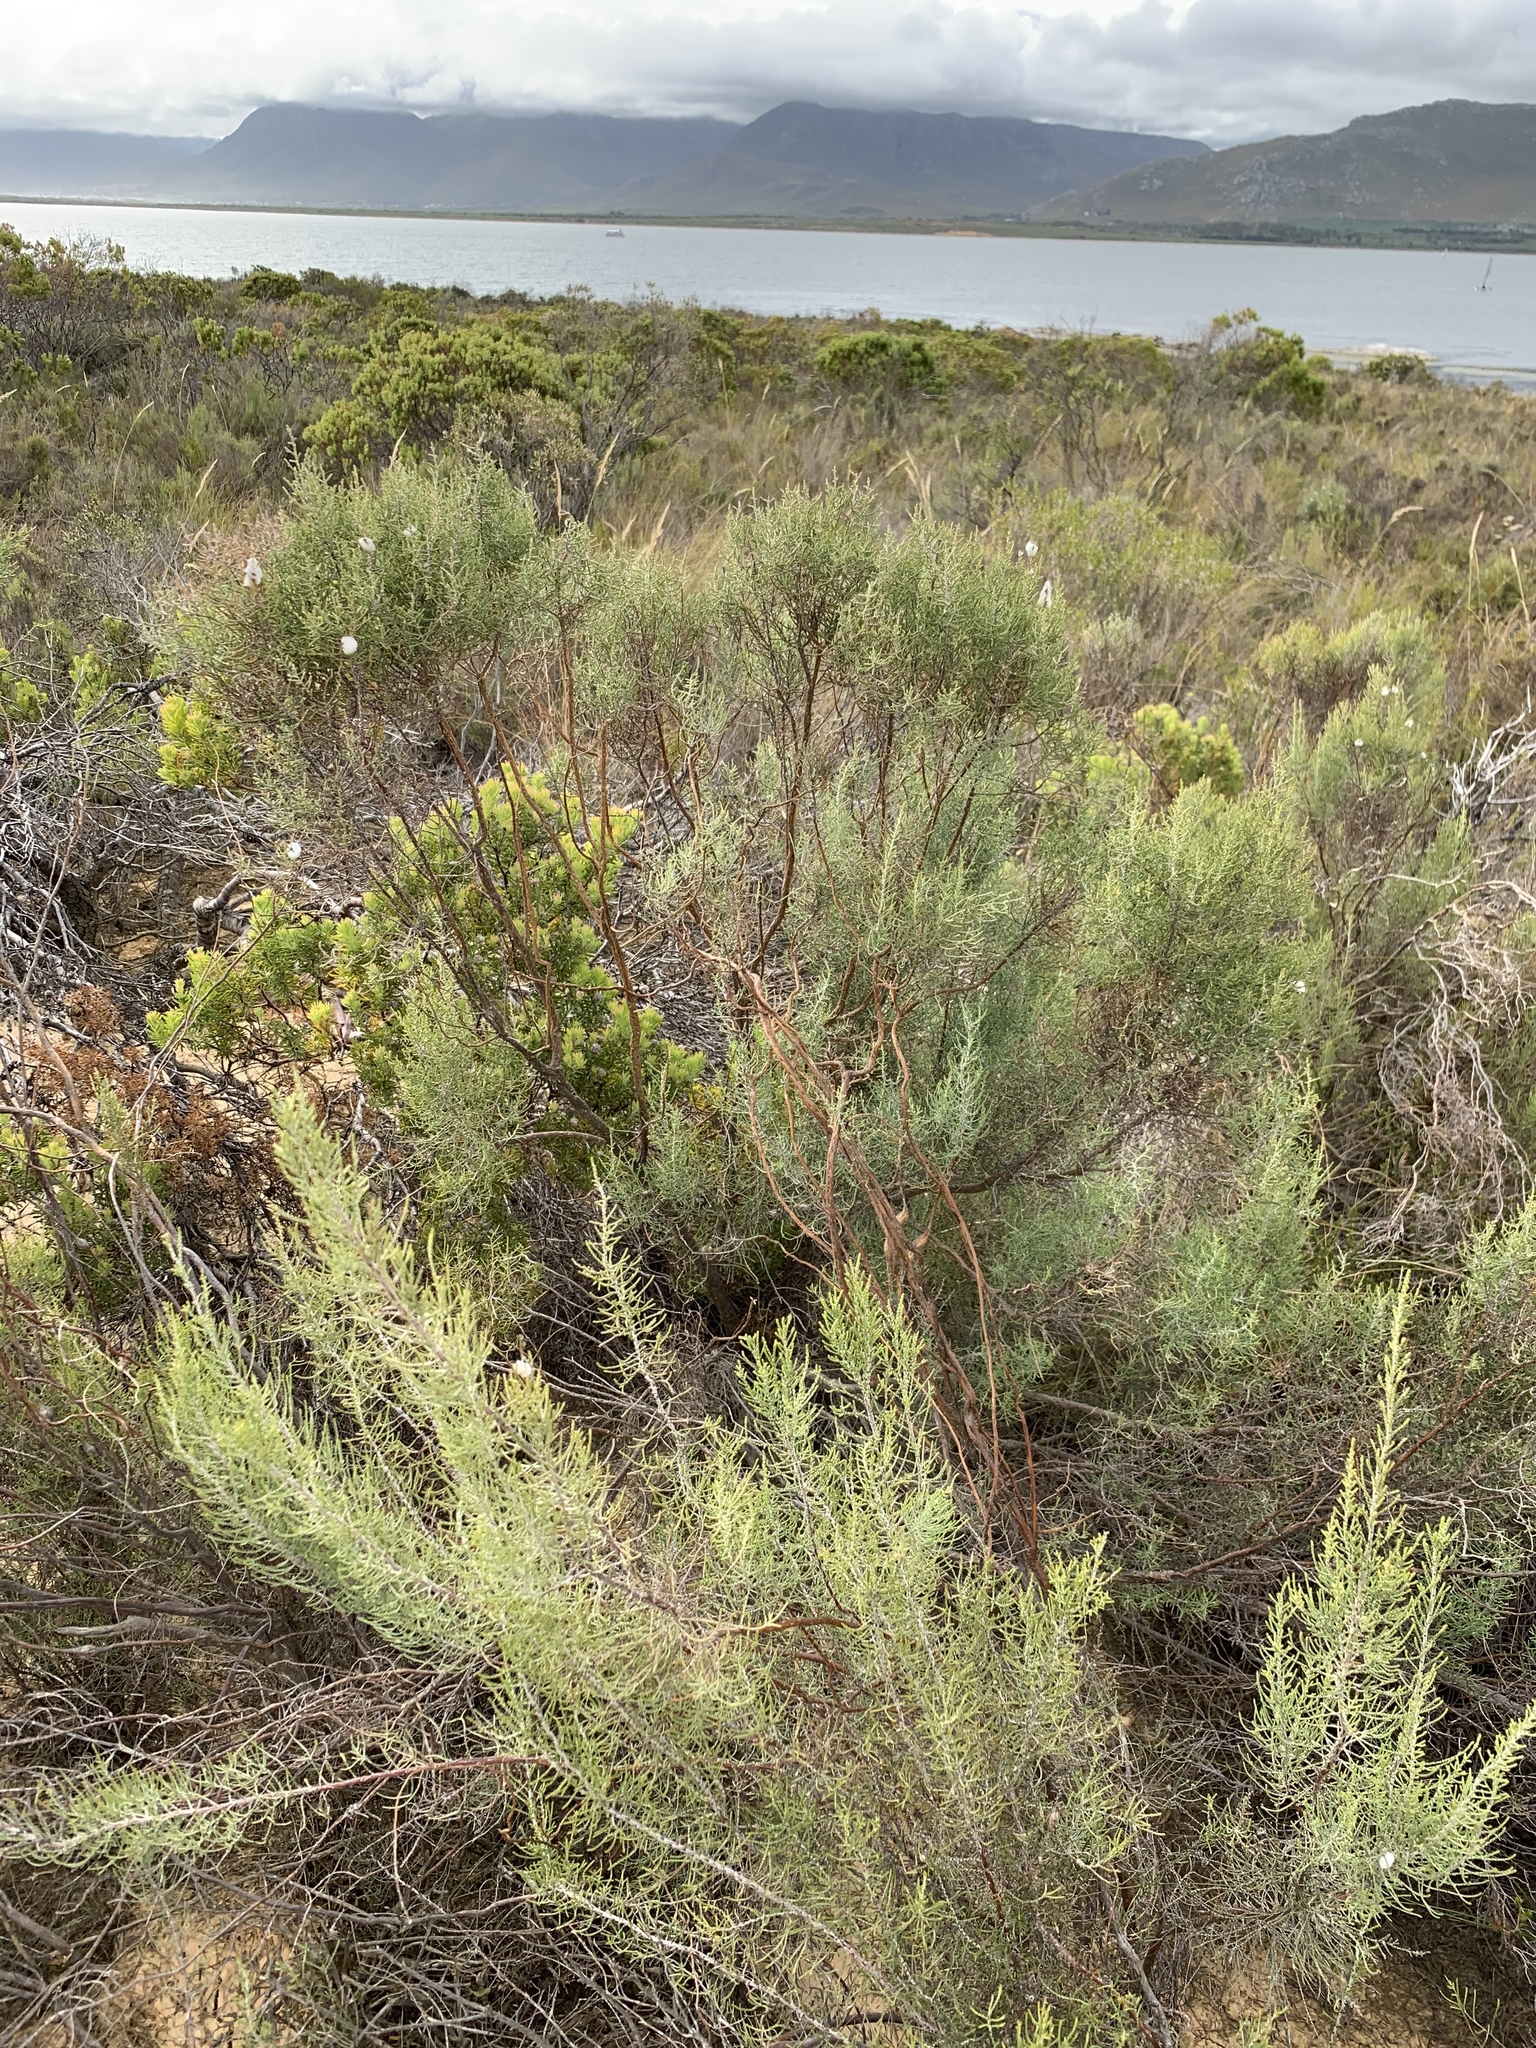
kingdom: Plantae
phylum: Tracheophyta
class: Magnoliopsida
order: Asterales
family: Asteraceae
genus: Dicerothamnus
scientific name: Dicerothamnus rhinocerotis
